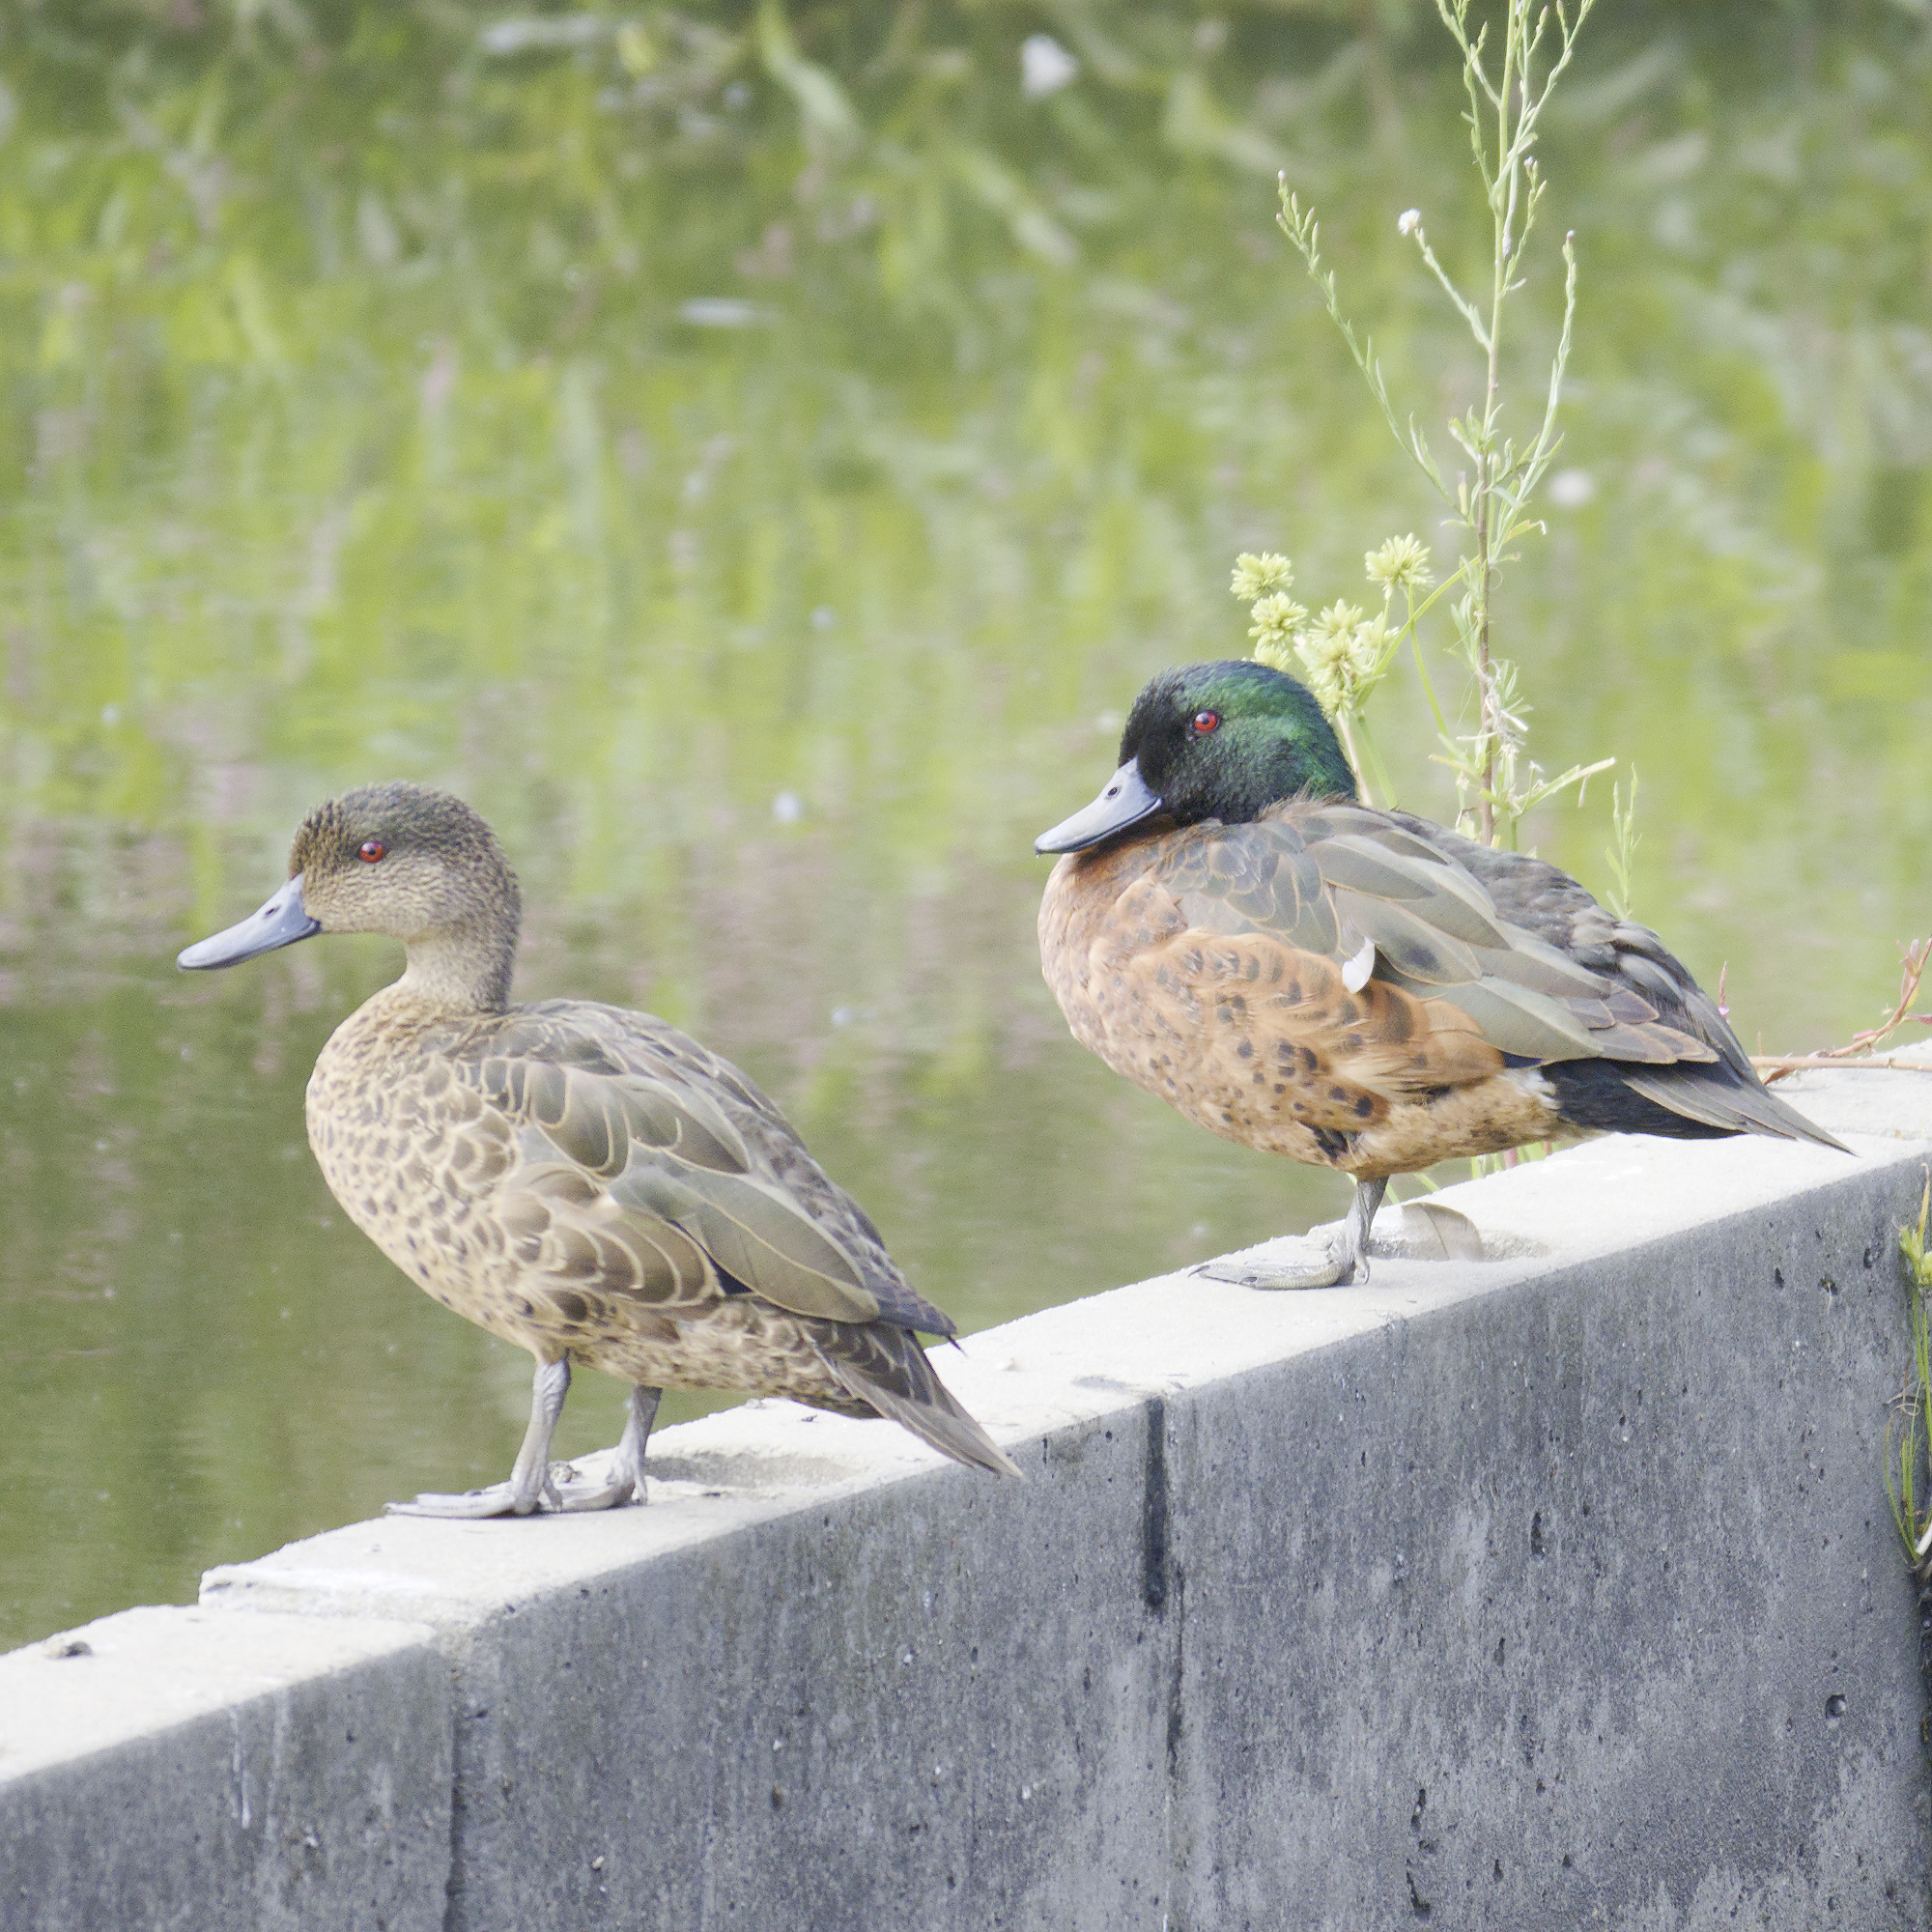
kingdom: Animalia
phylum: Chordata
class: Aves
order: Anseriformes
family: Anatidae
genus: Anas
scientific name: Anas castanea
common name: Chestnut teal
